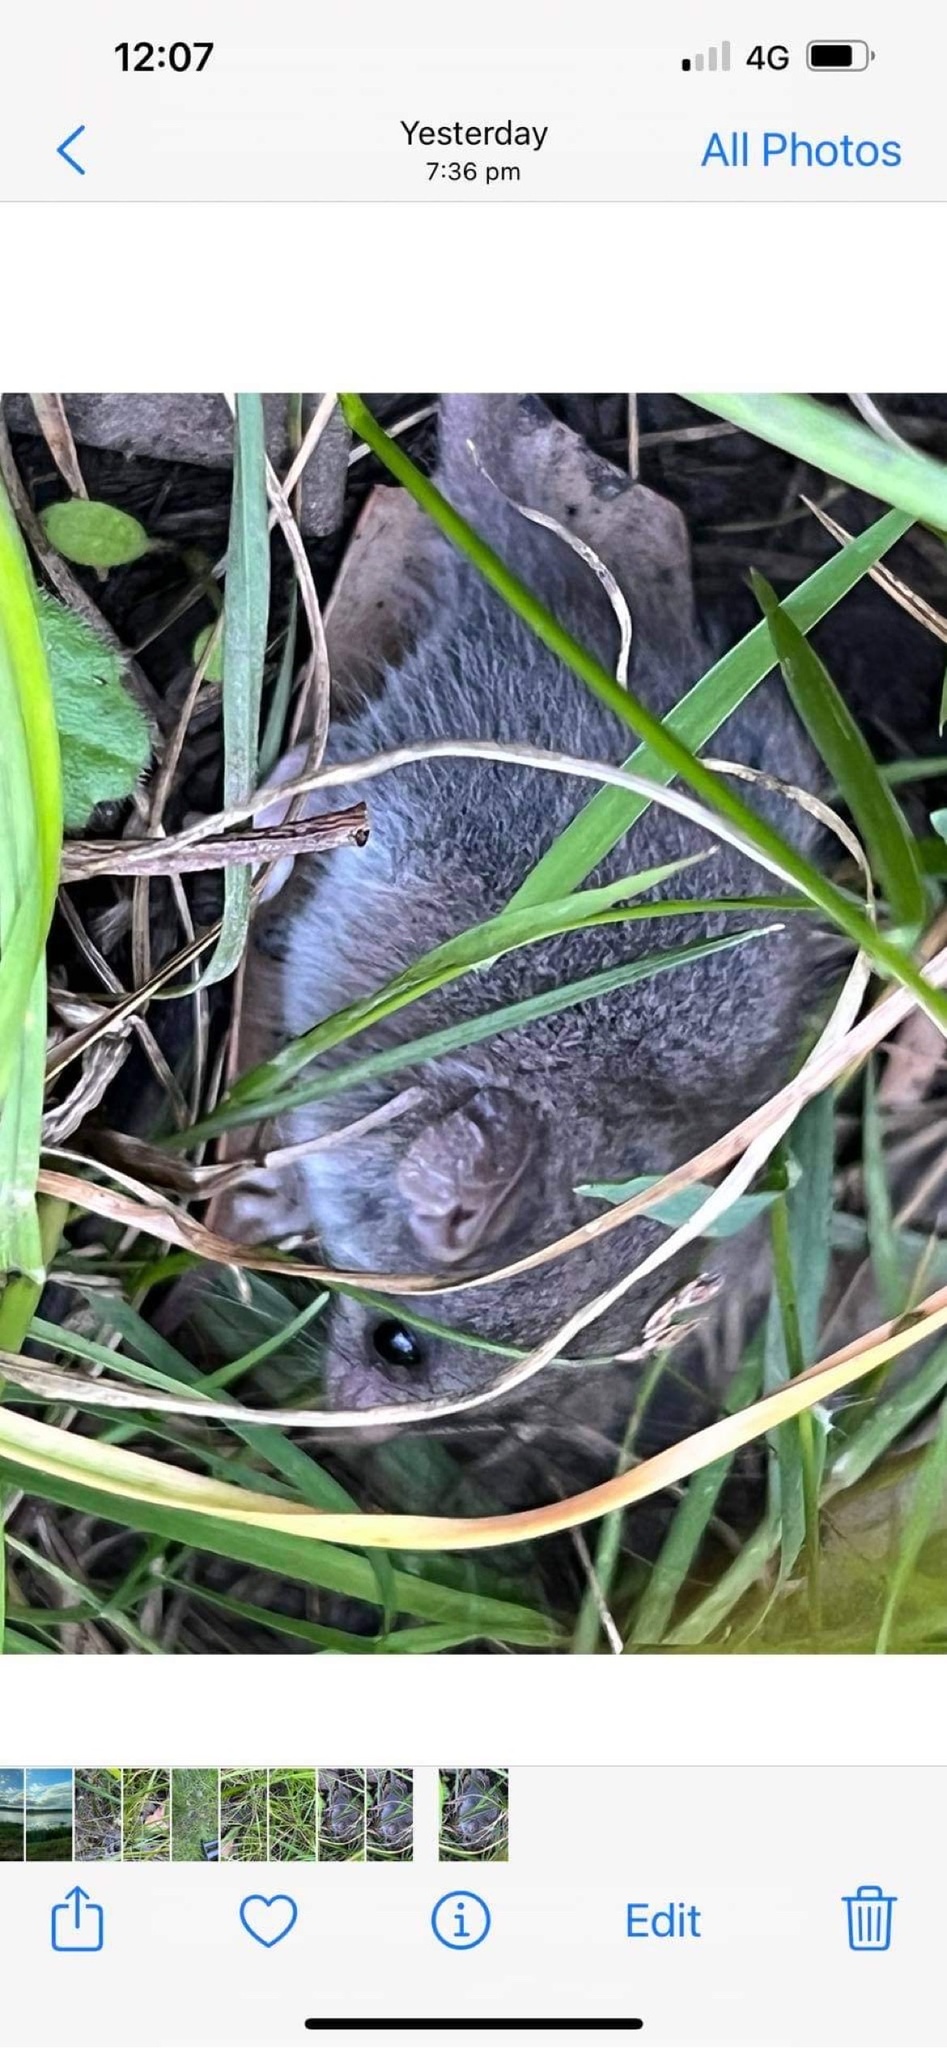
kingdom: Animalia
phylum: Chordata
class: Mammalia
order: Diprotodontia
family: Burramyidae
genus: Cercartetus
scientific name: Cercartetus lepidus
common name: Tasmanian pygmy possum
